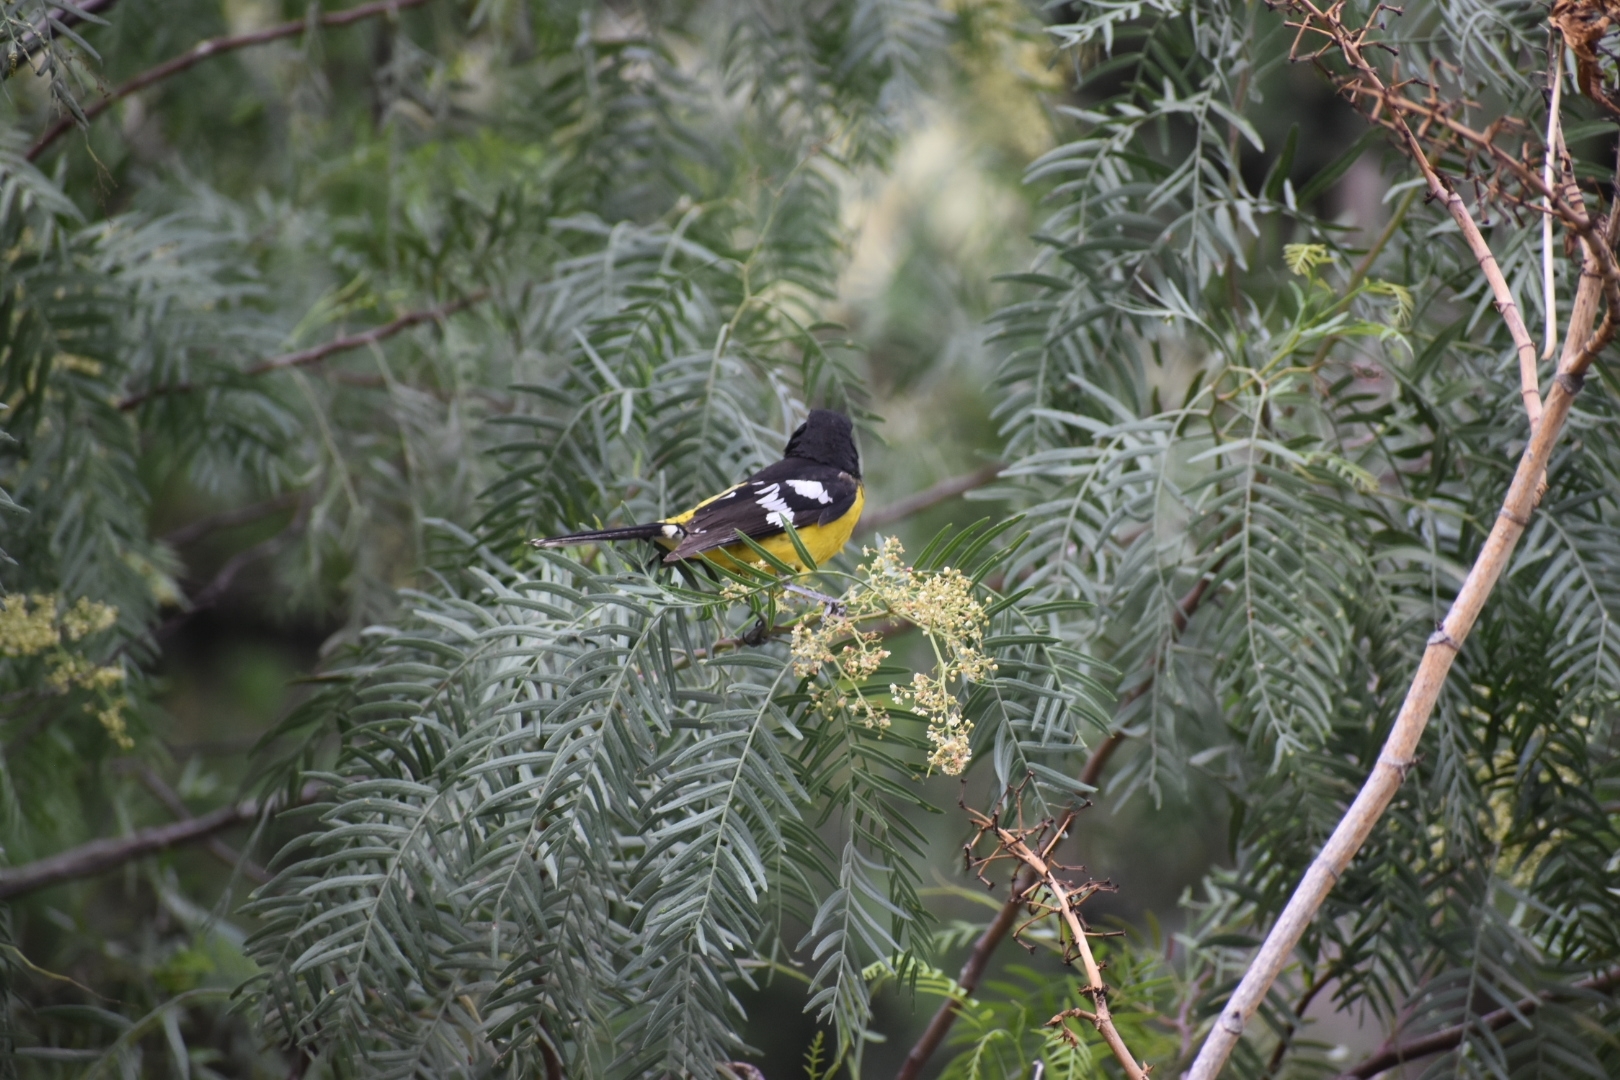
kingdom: Animalia
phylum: Chordata
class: Aves
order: Passeriformes
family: Cardinalidae
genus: Pheucticus
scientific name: Pheucticus aureoventris
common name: Black-backed grosbeak
